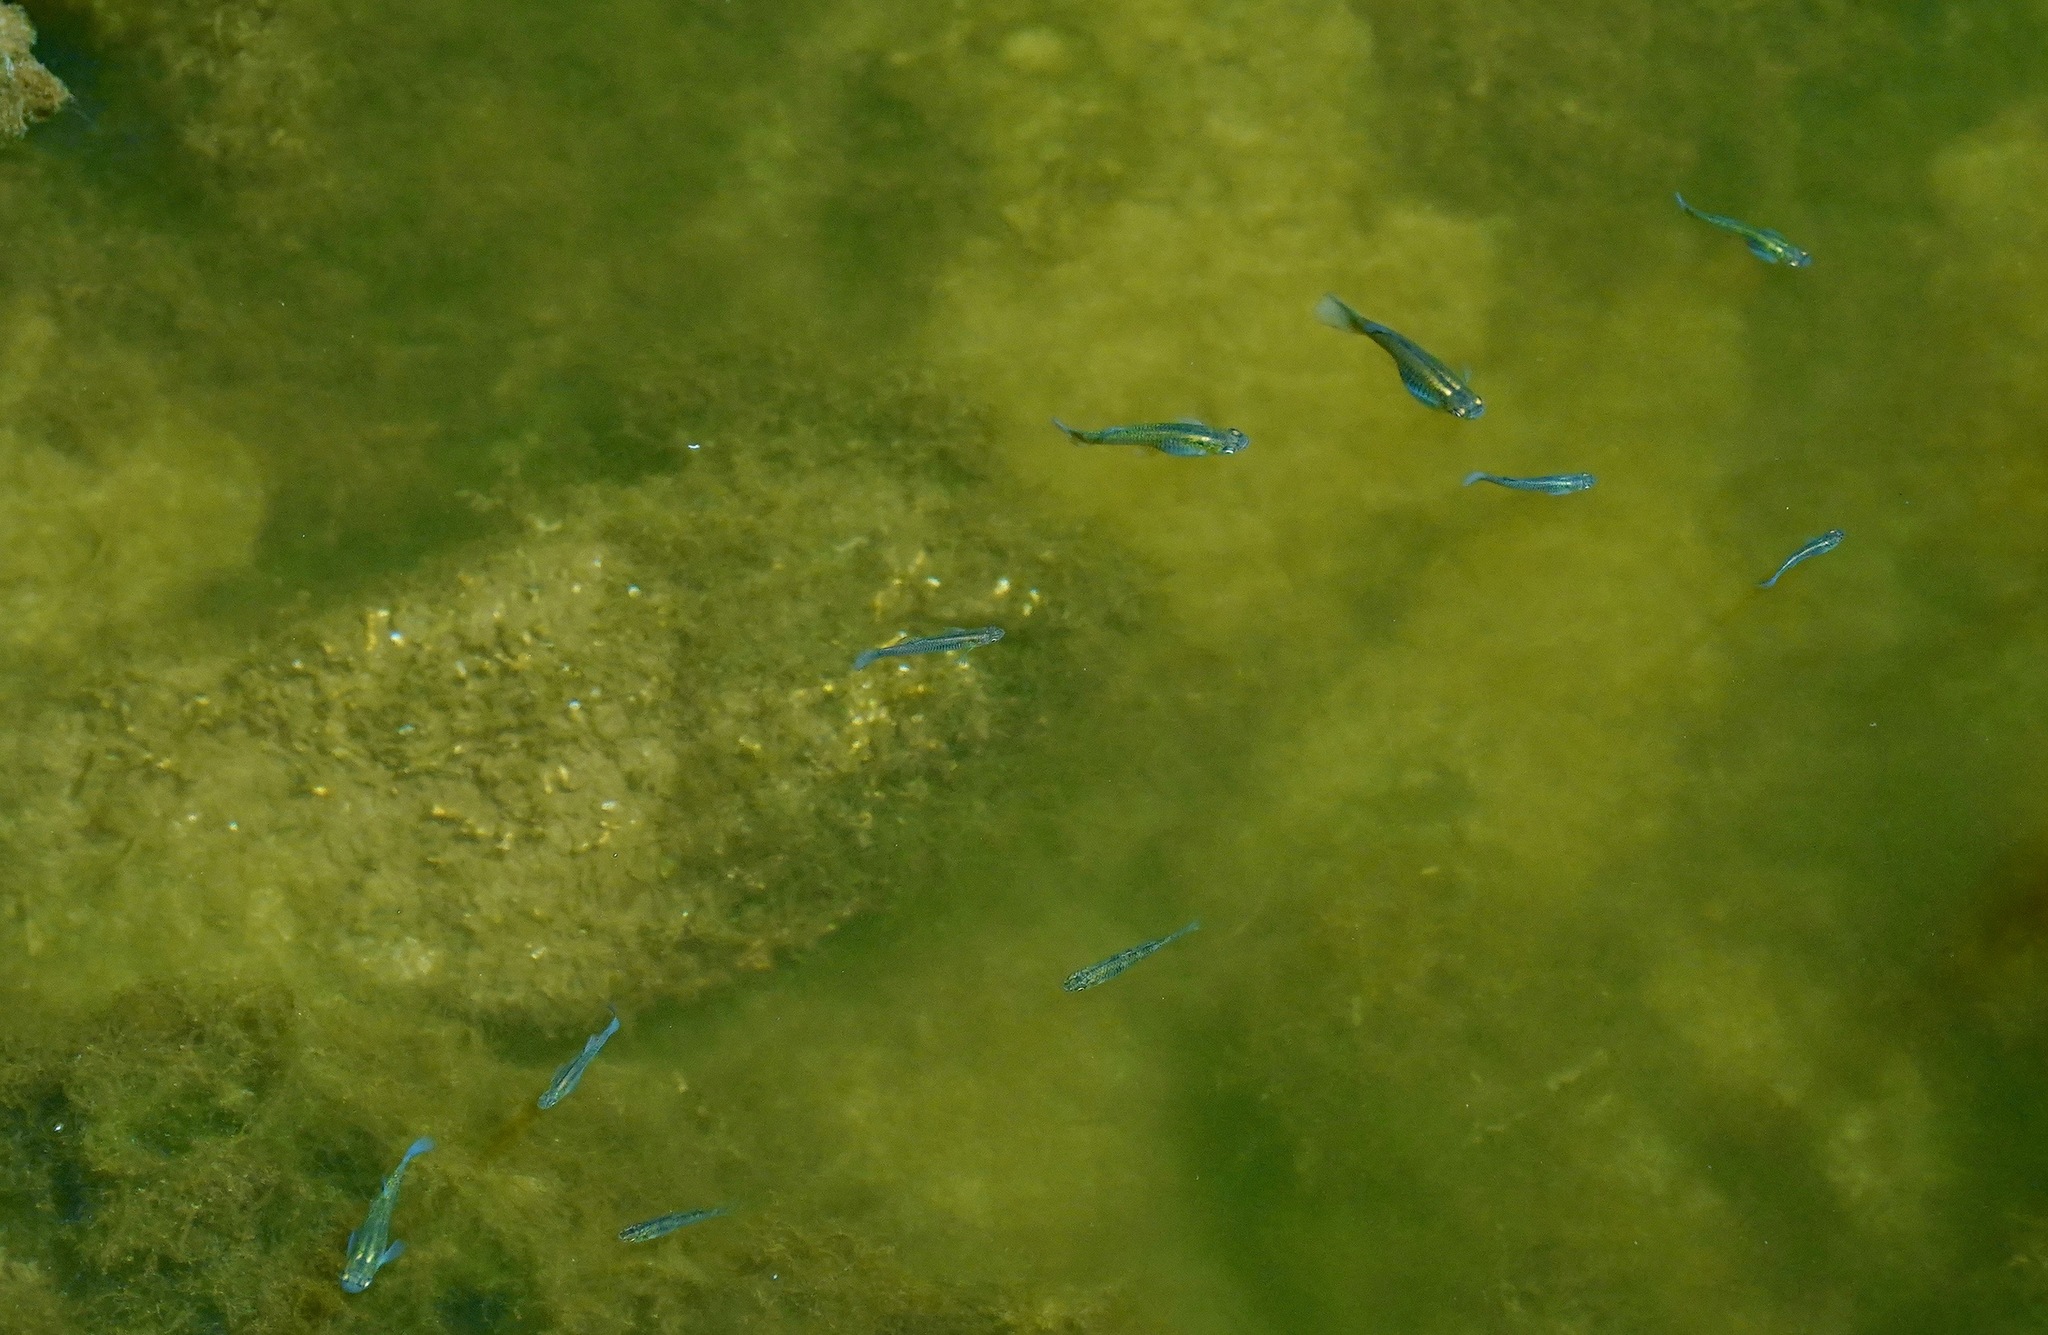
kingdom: Animalia
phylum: Chordata
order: Cyprinodontiformes
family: Poeciliidae
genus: Gambusia
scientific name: Gambusia affinis
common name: Mosquitofish
